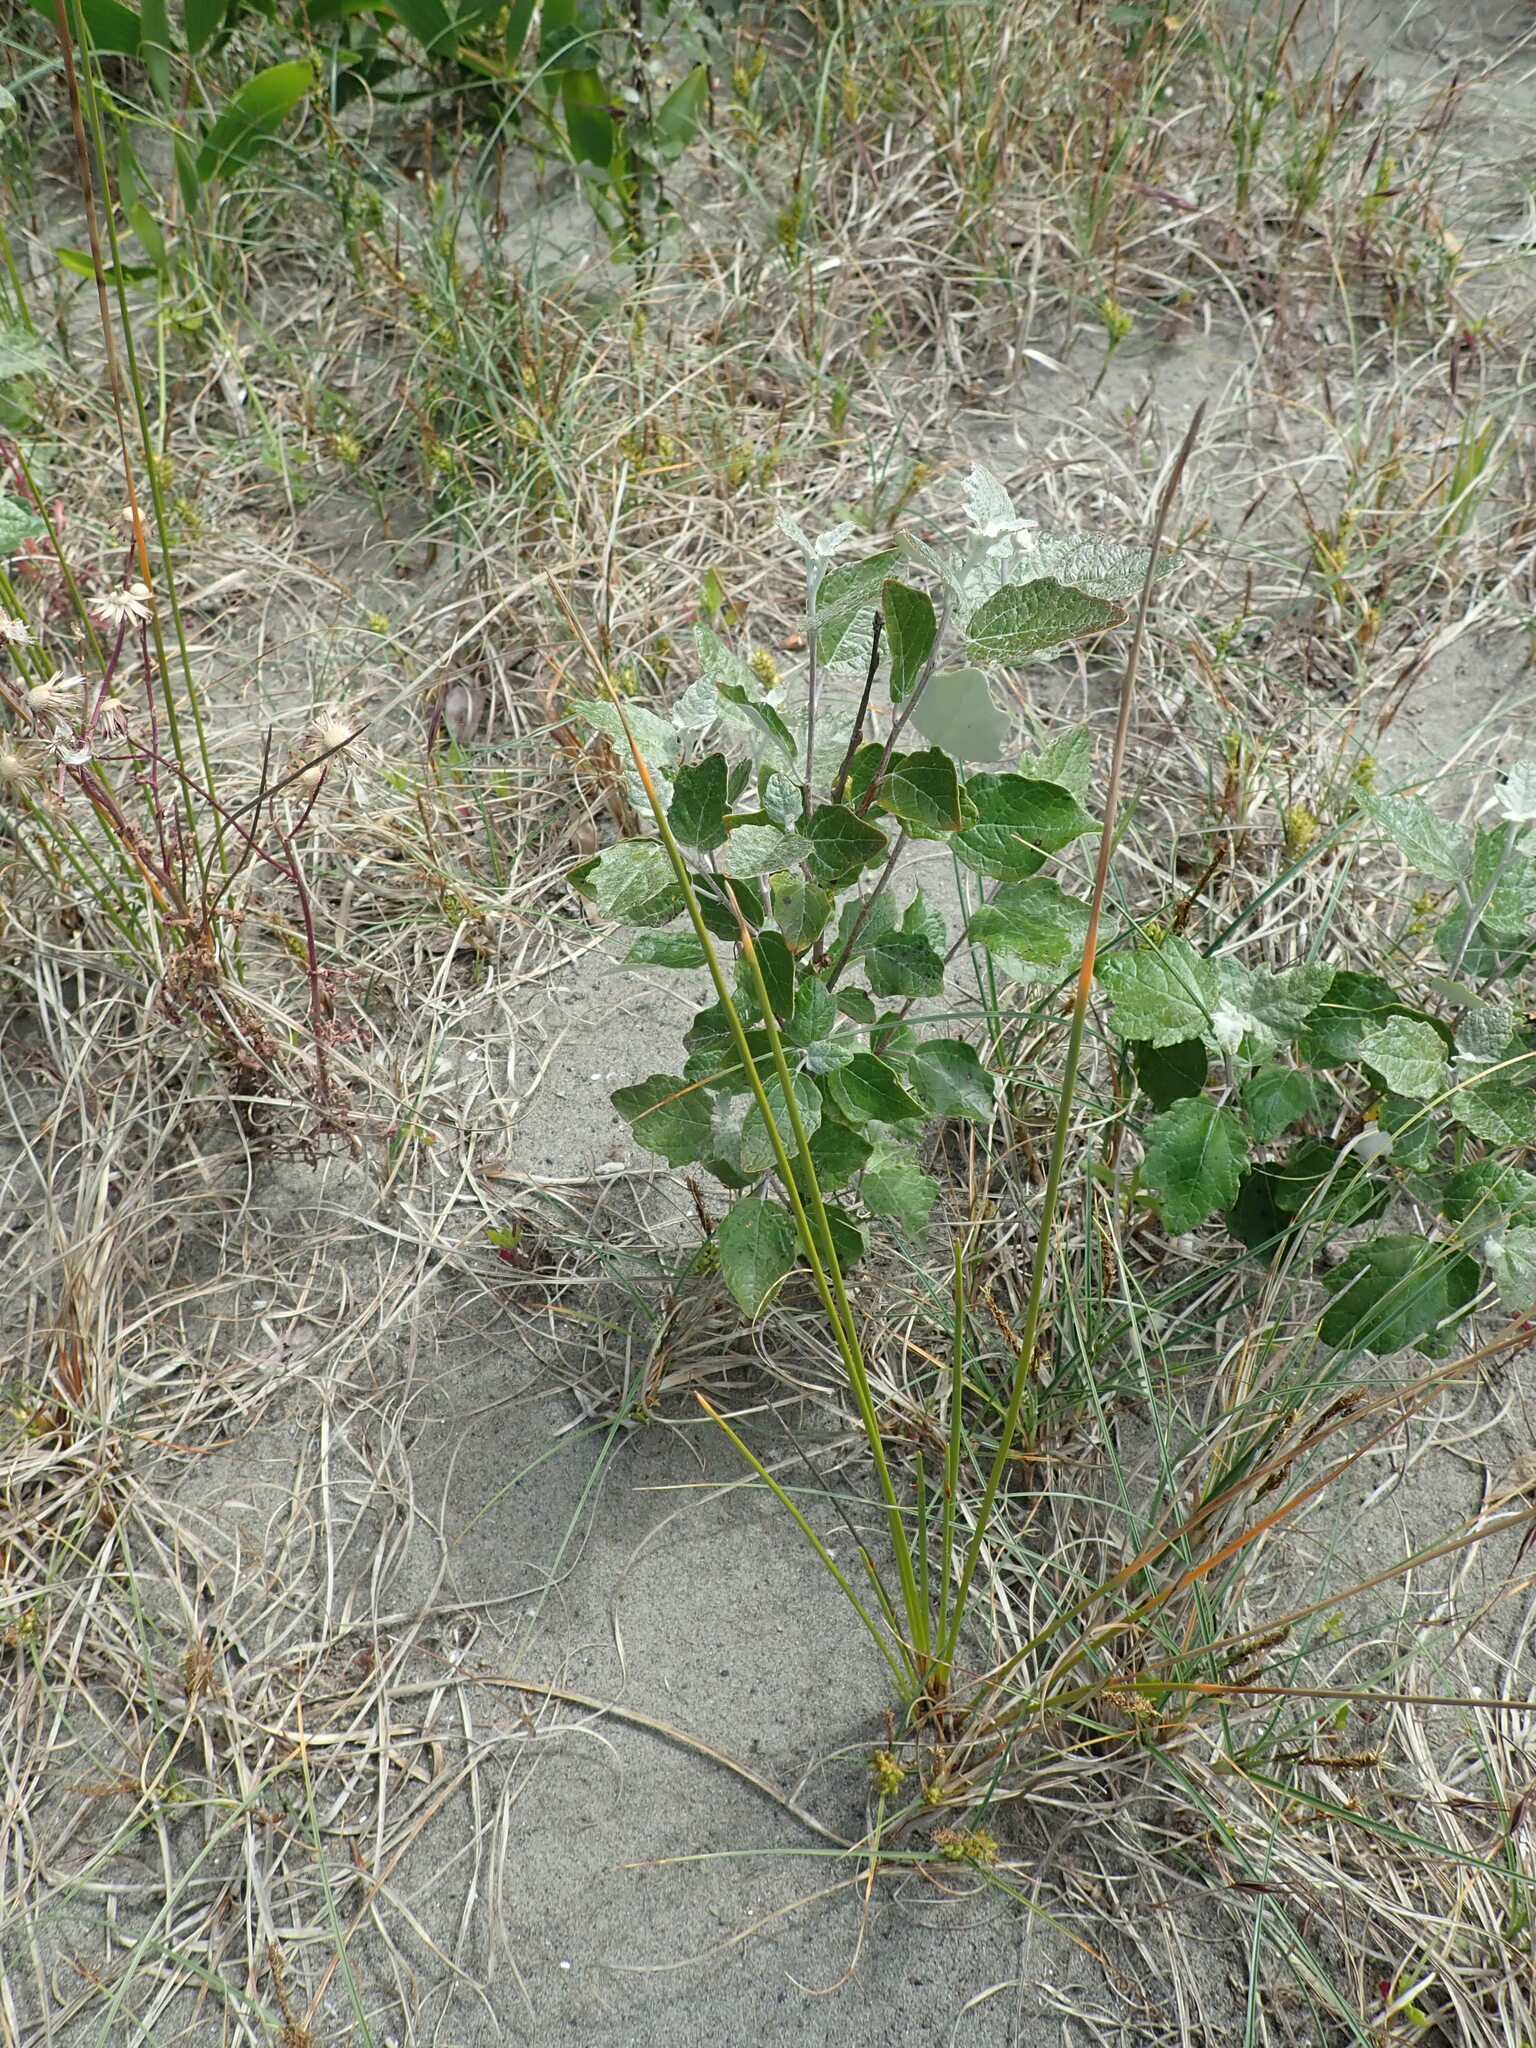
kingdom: Plantae
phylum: Tracheophyta
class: Magnoliopsida
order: Malpighiales
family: Salicaceae
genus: Populus
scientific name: Populus alba
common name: White poplar
